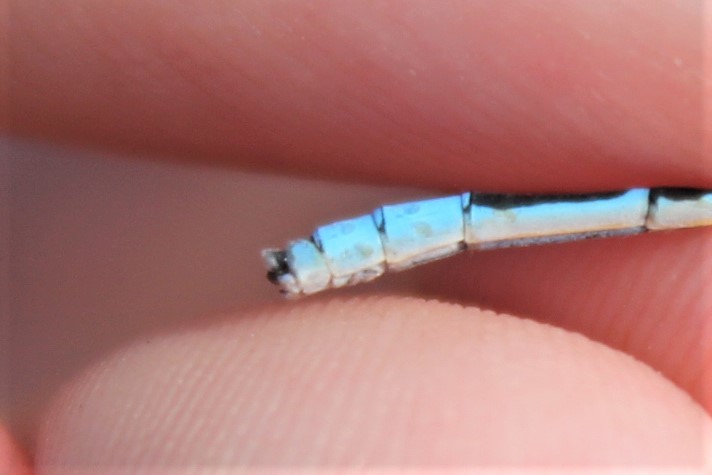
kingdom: Animalia
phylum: Arthropoda
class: Insecta
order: Odonata
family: Coenagrionidae
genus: Enallagma
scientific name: Enallagma civile
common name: Damselfly
